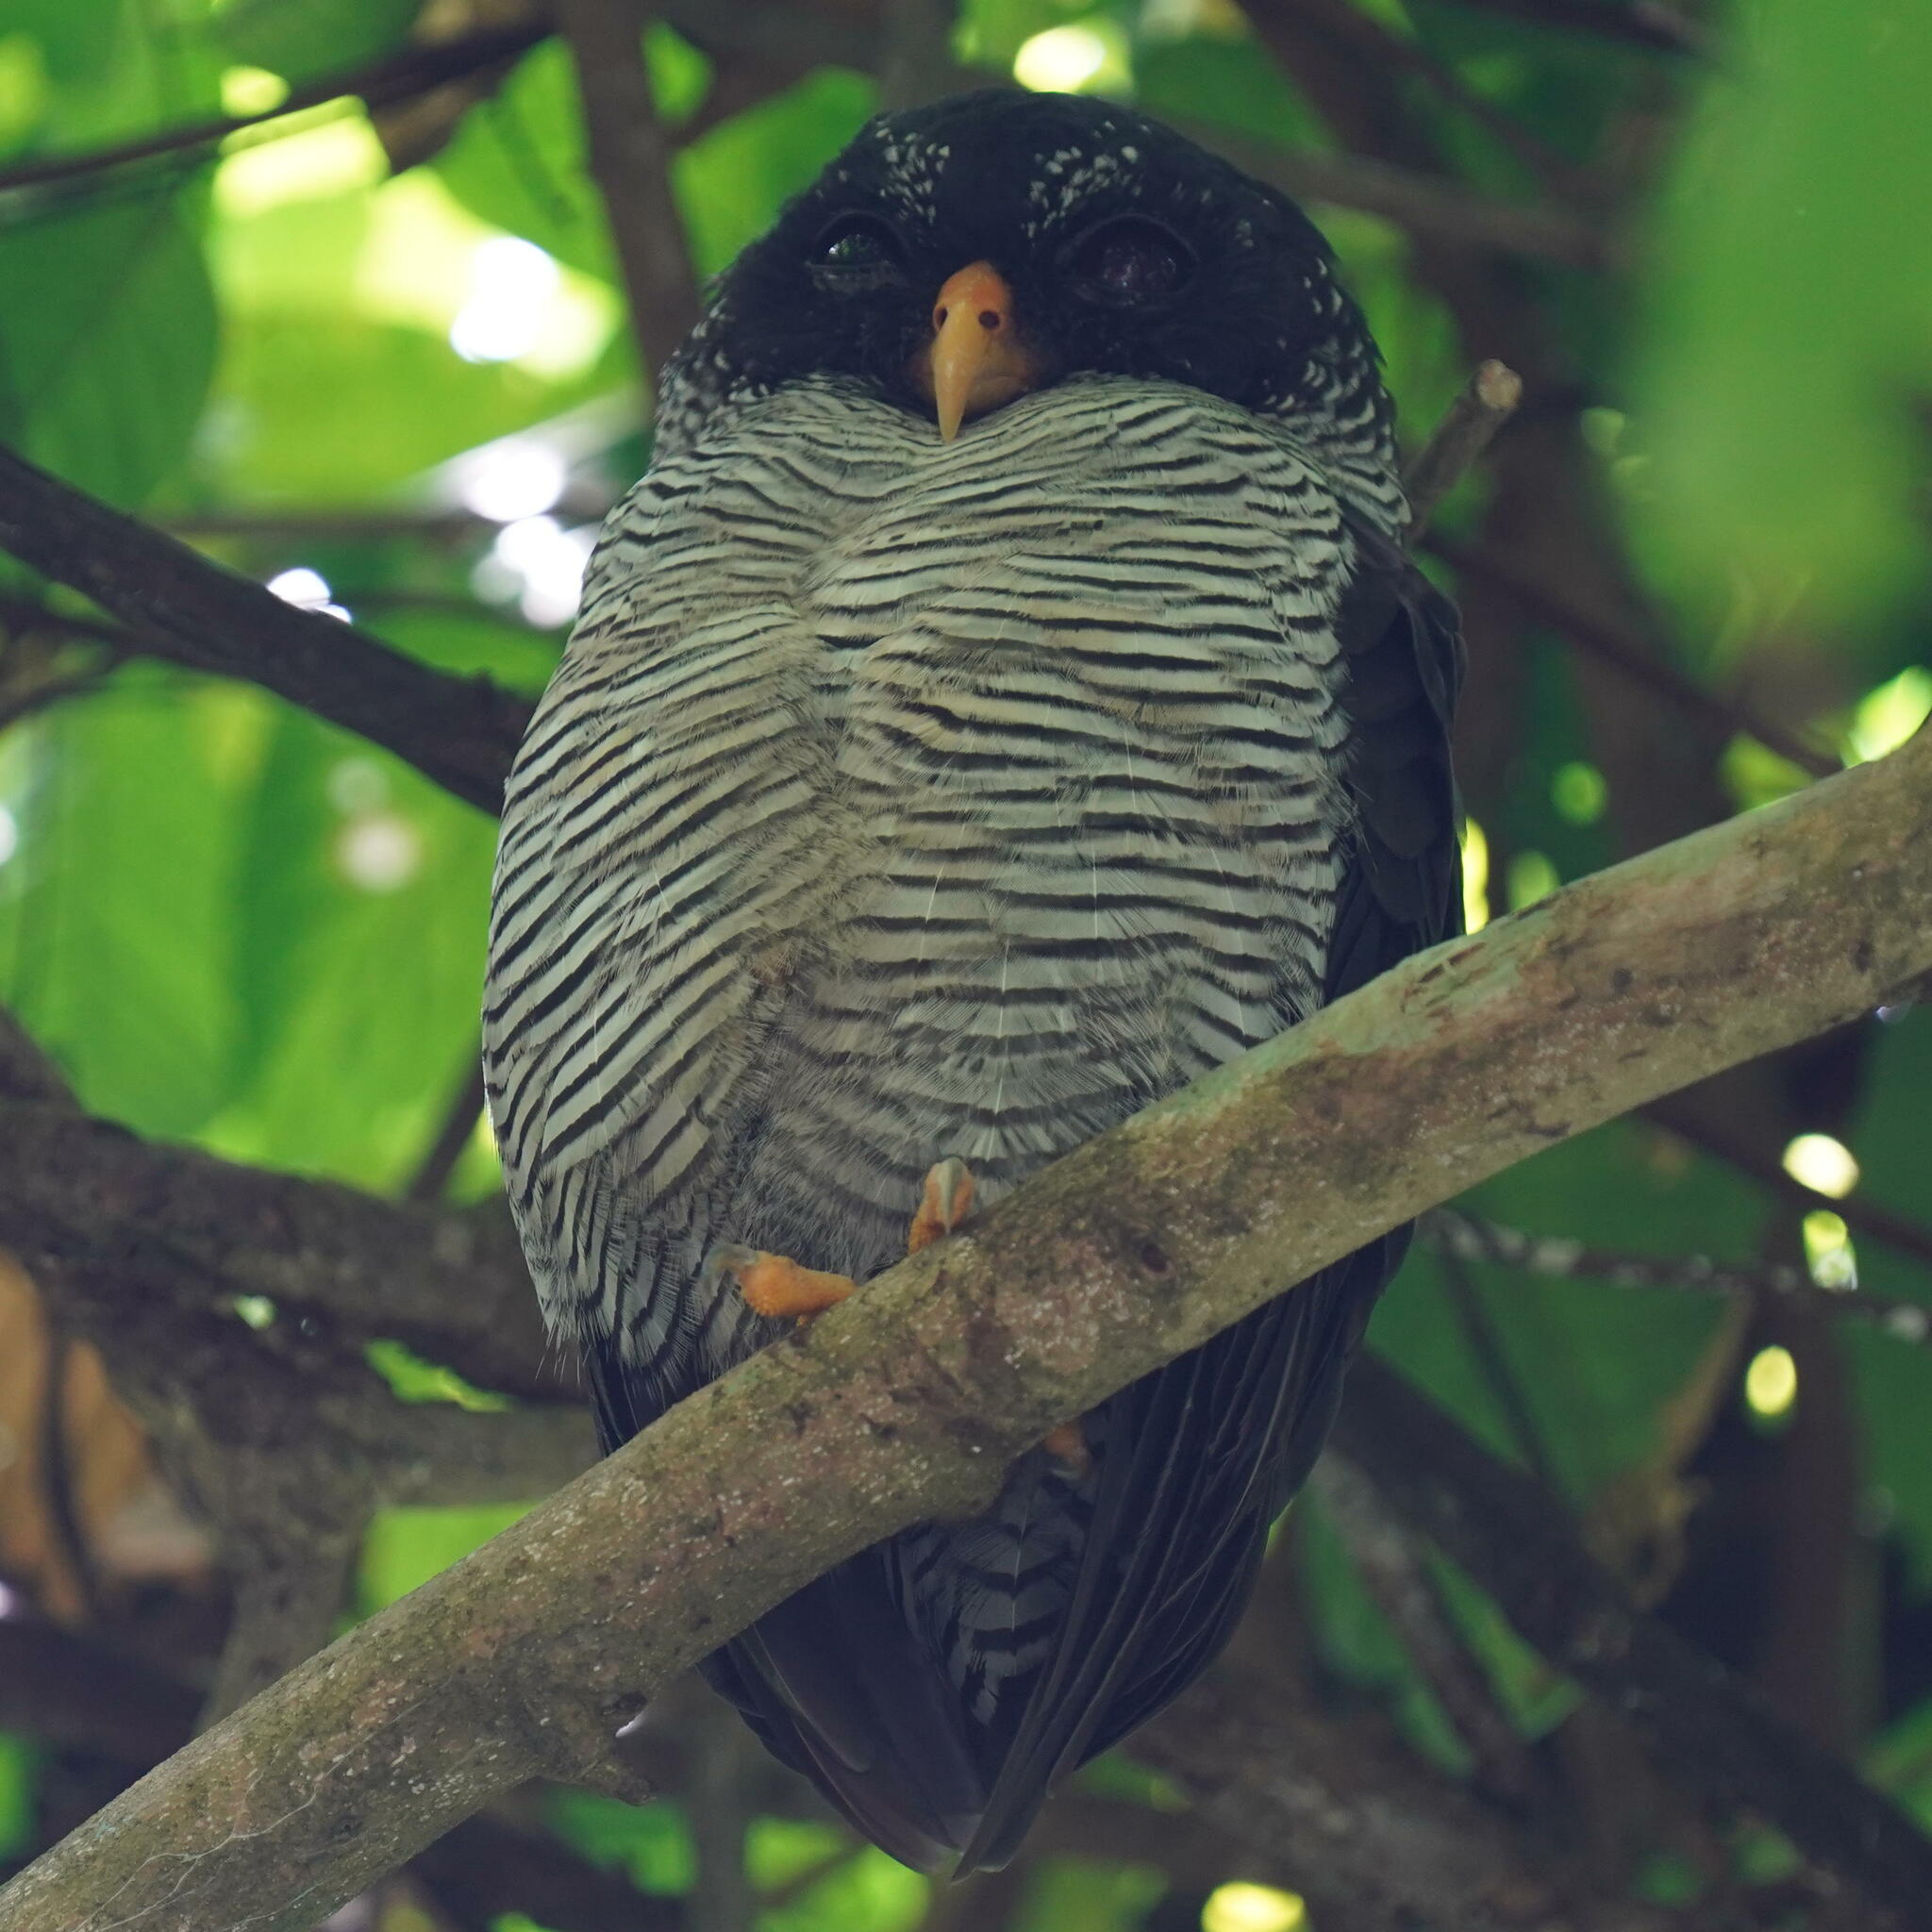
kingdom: Animalia
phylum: Chordata
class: Aves
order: Strigiformes
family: Strigidae
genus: Strix
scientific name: Strix nigrolineata
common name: Black-and-white owl
